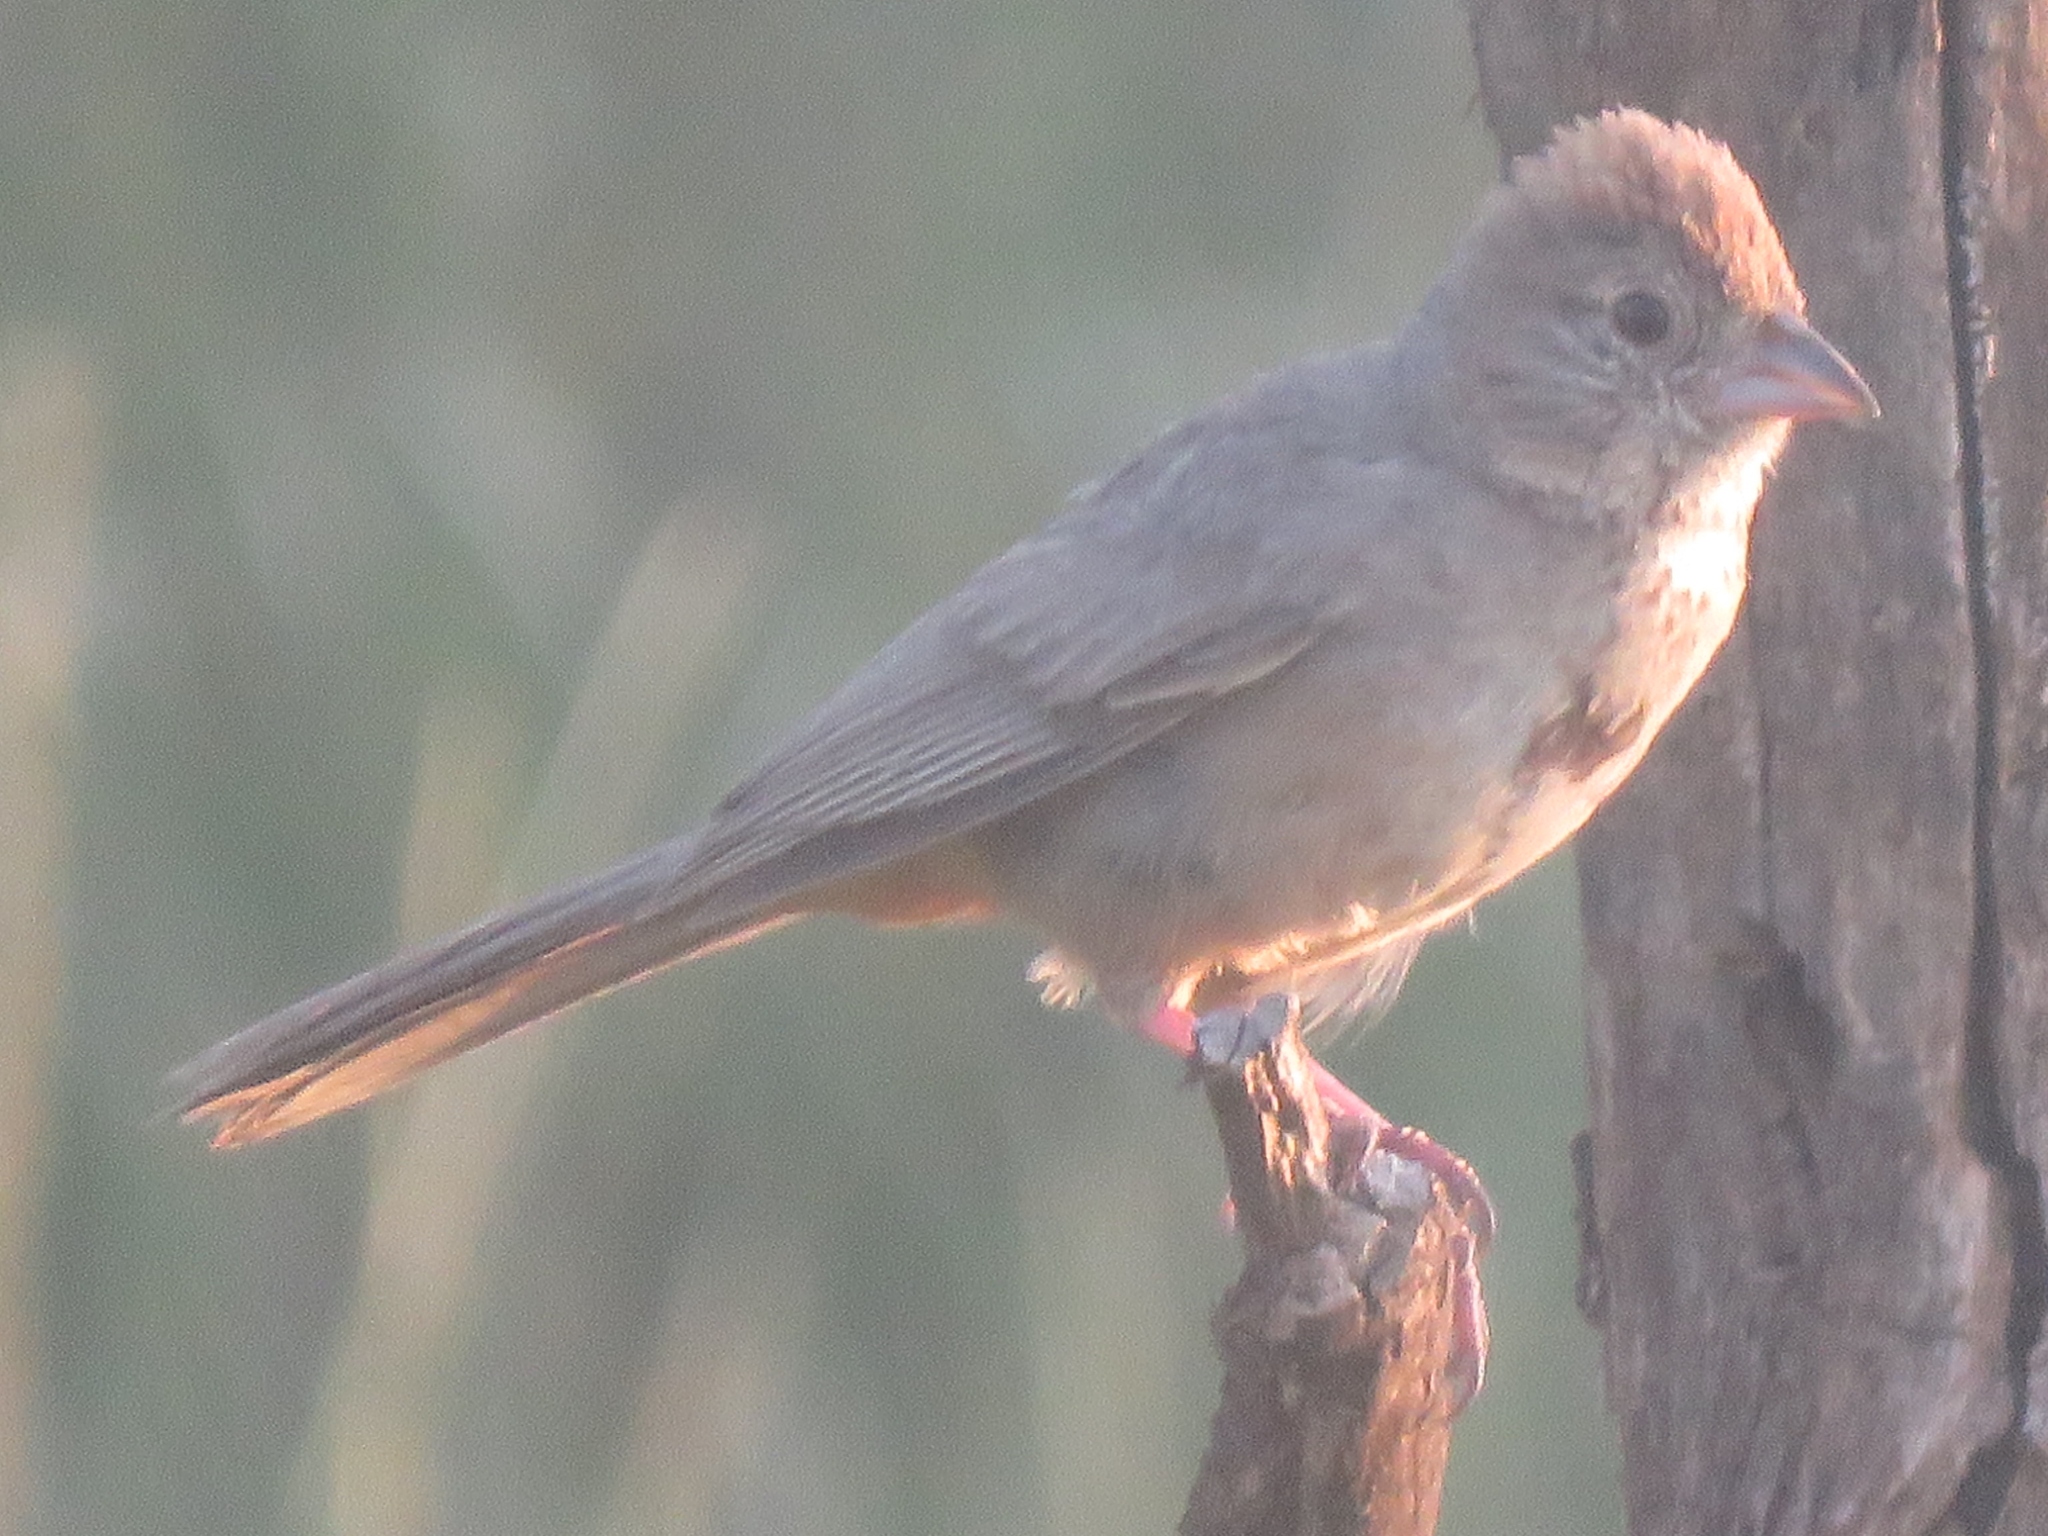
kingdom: Animalia
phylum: Chordata
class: Aves
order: Passeriformes
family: Passerellidae
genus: Melozone
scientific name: Melozone fusca
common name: Canyon towhee
